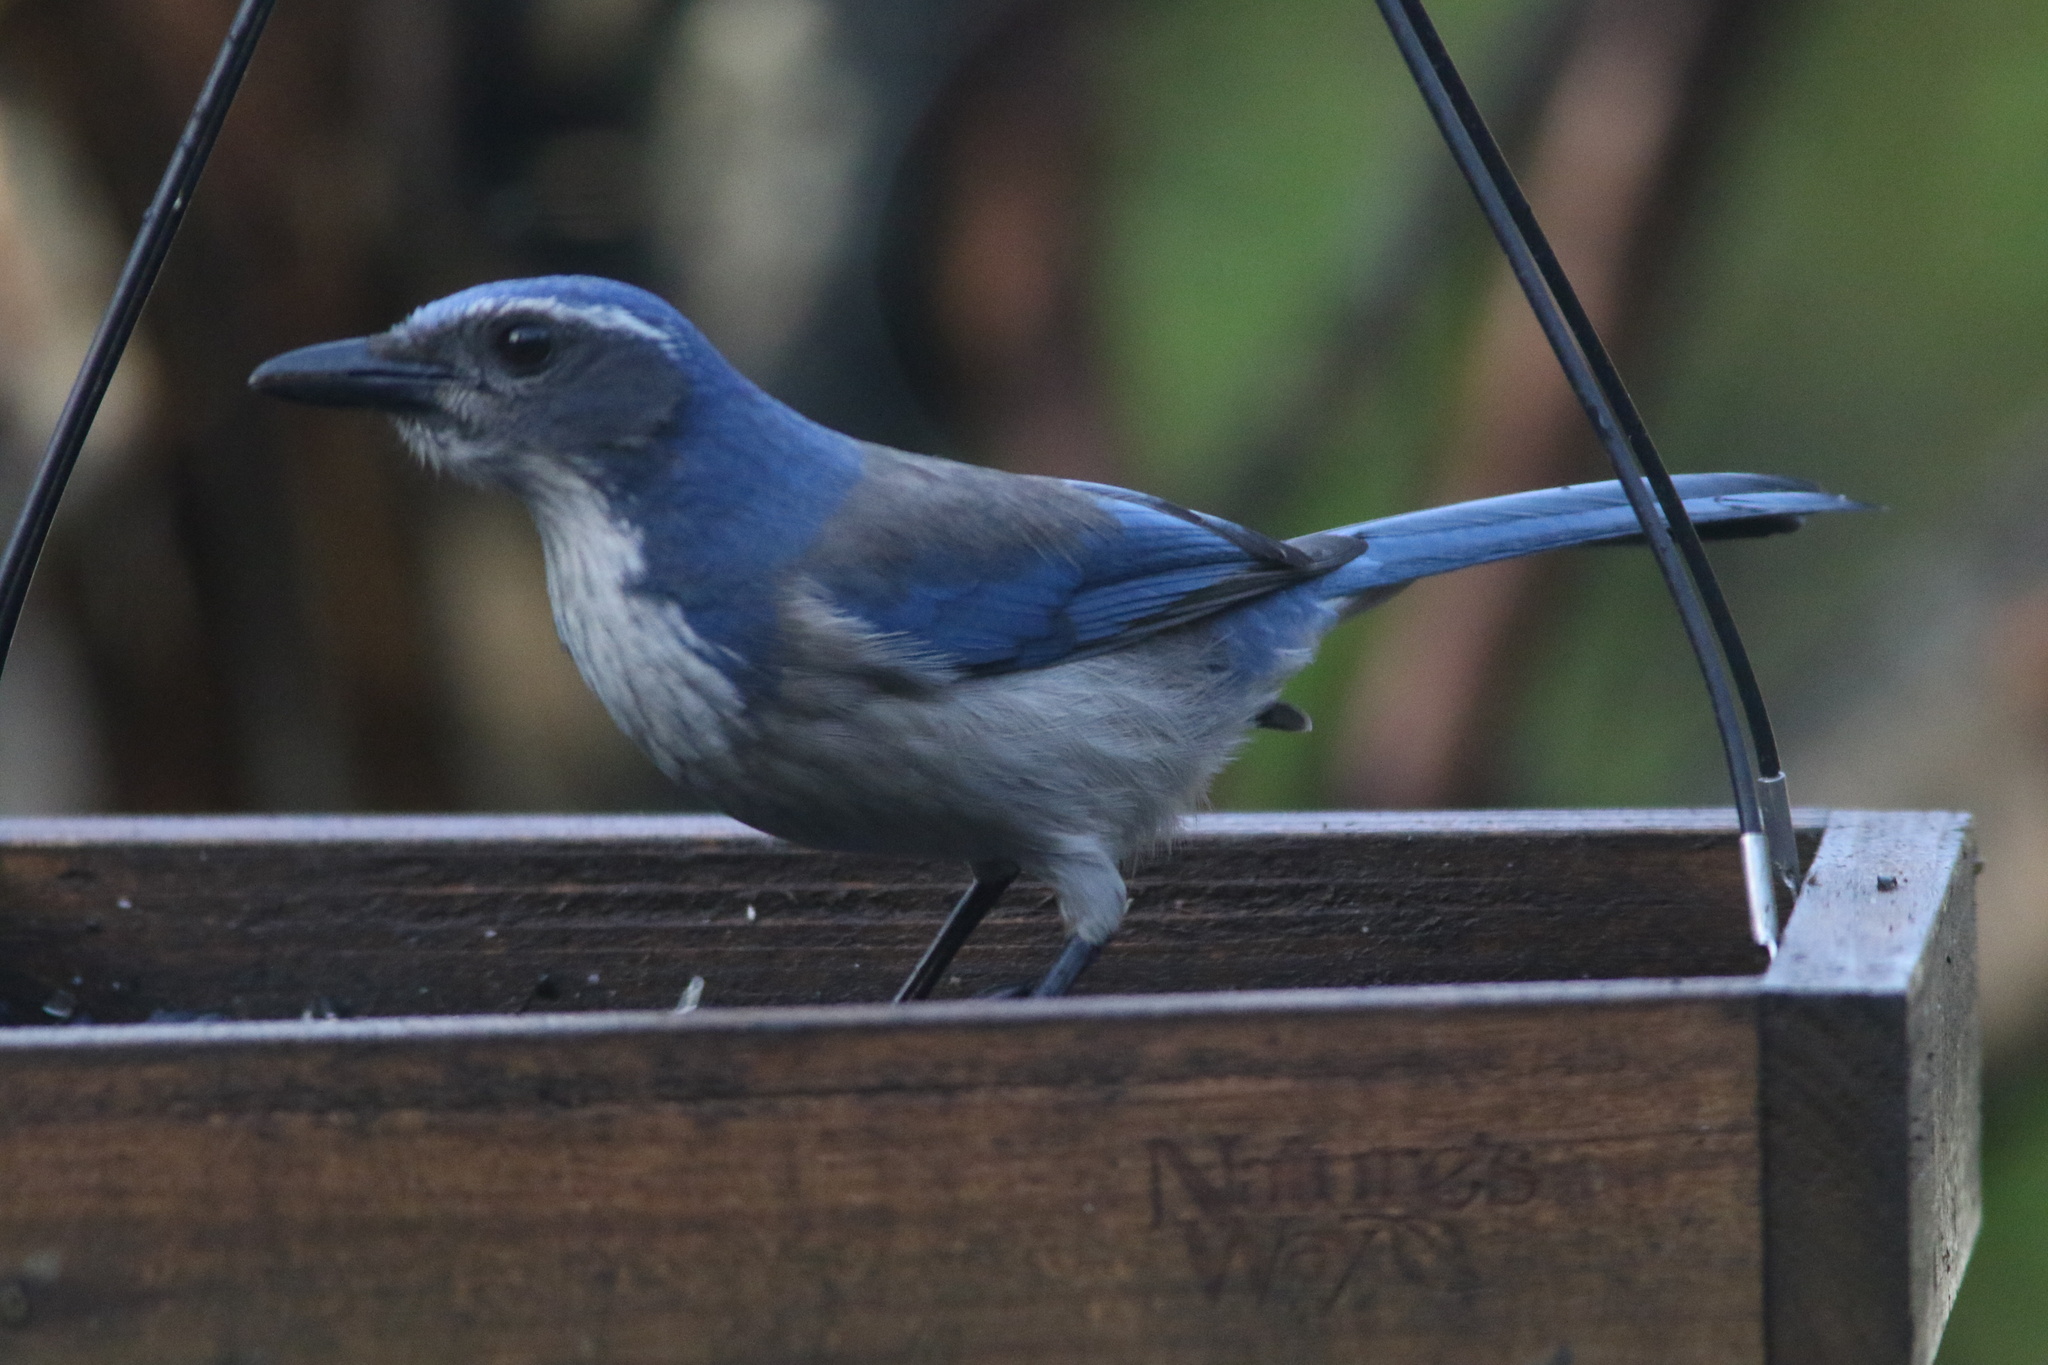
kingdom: Animalia
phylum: Chordata
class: Aves
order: Passeriformes
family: Corvidae
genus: Aphelocoma
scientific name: Aphelocoma californica
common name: California scrub-jay
